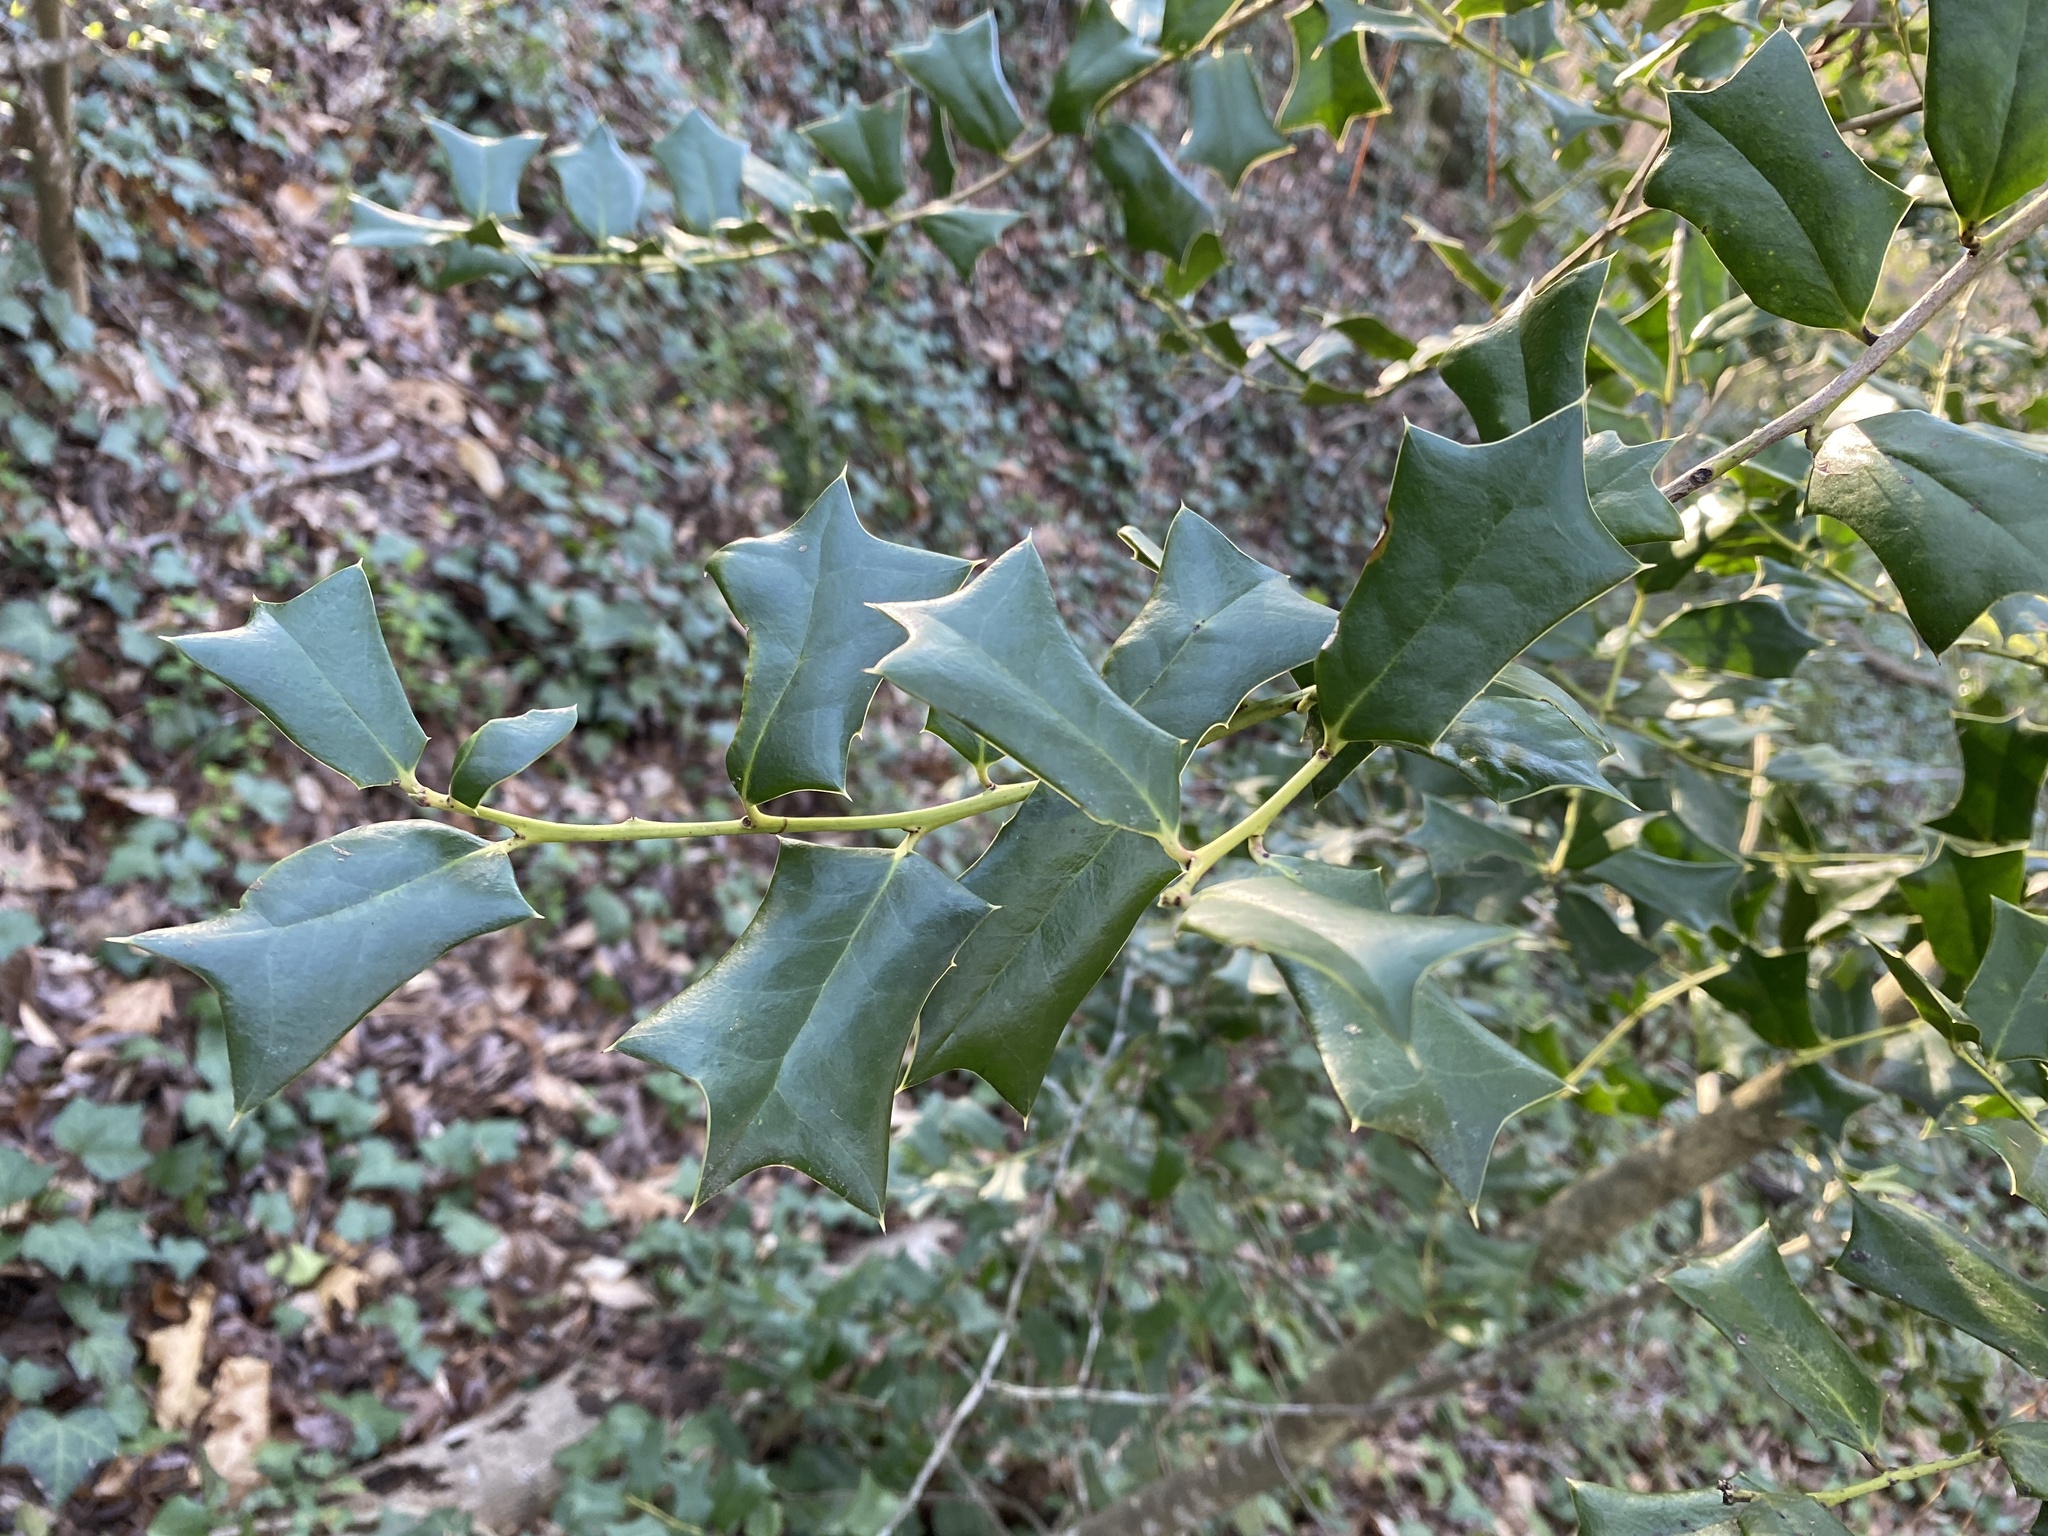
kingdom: Plantae
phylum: Tracheophyta
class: Magnoliopsida
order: Aquifoliales
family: Aquifoliaceae
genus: Ilex
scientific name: Ilex cornuta
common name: Chinese holly
